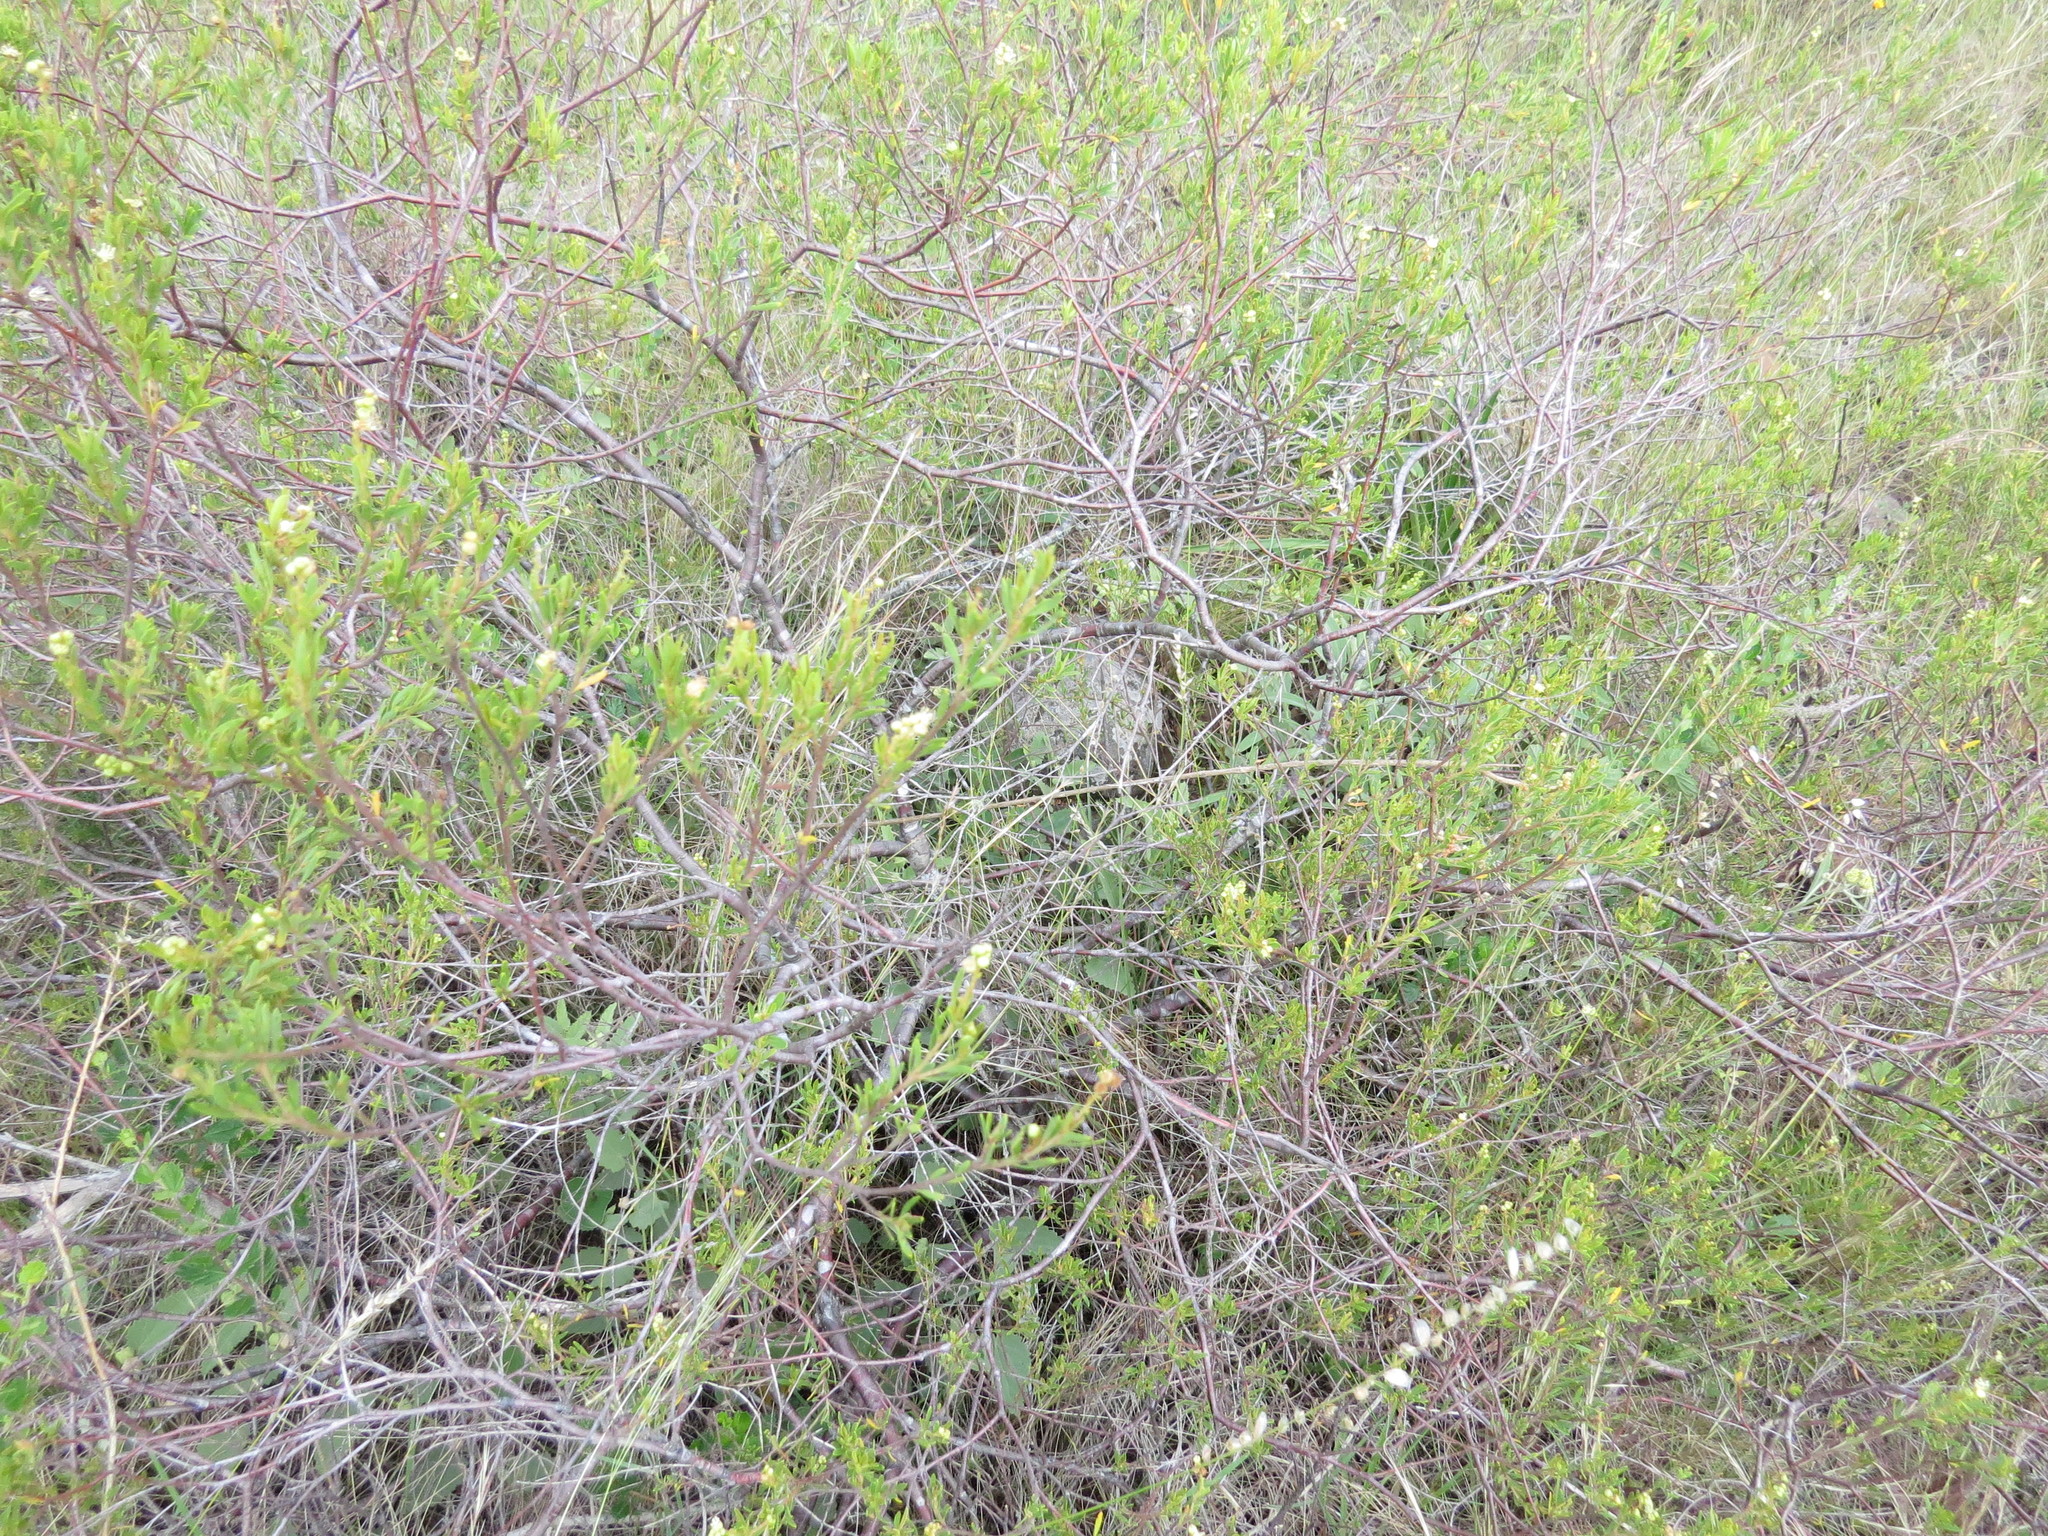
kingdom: Plantae
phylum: Tracheophyta
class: Magnoliopsida
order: Malpighiales
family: Euphorbiaceae
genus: Croton
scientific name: Croton cuchillae-nigrae
